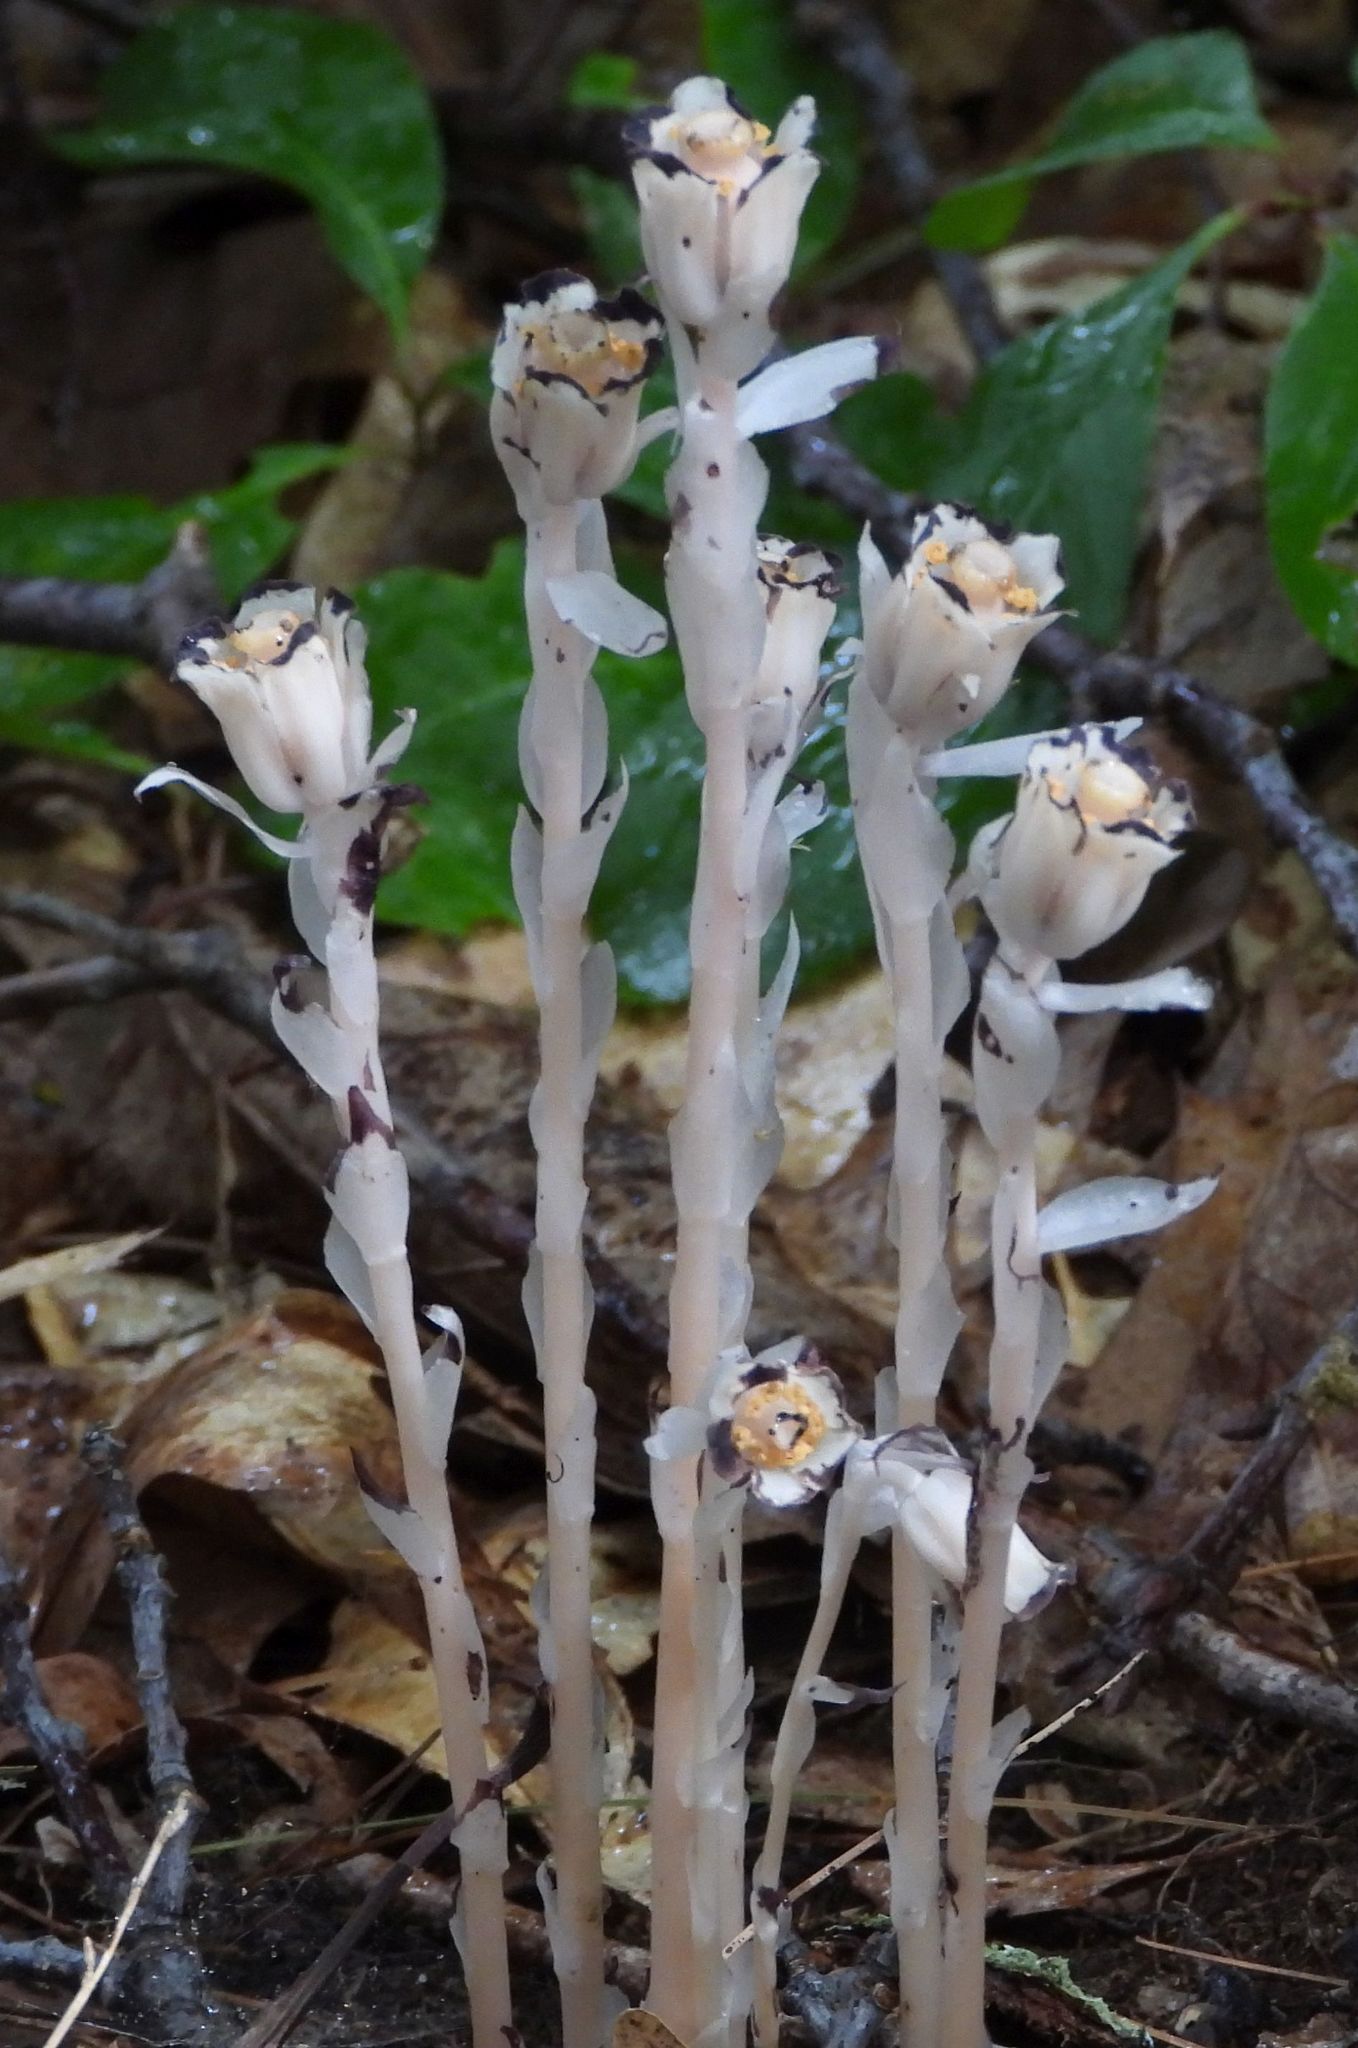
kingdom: Plantae
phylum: Tracheophyta
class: Magnoliopsida
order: Ericales
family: Ericaceae
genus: Monotropa
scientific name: Monotropa uniflora
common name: Convulsion root
